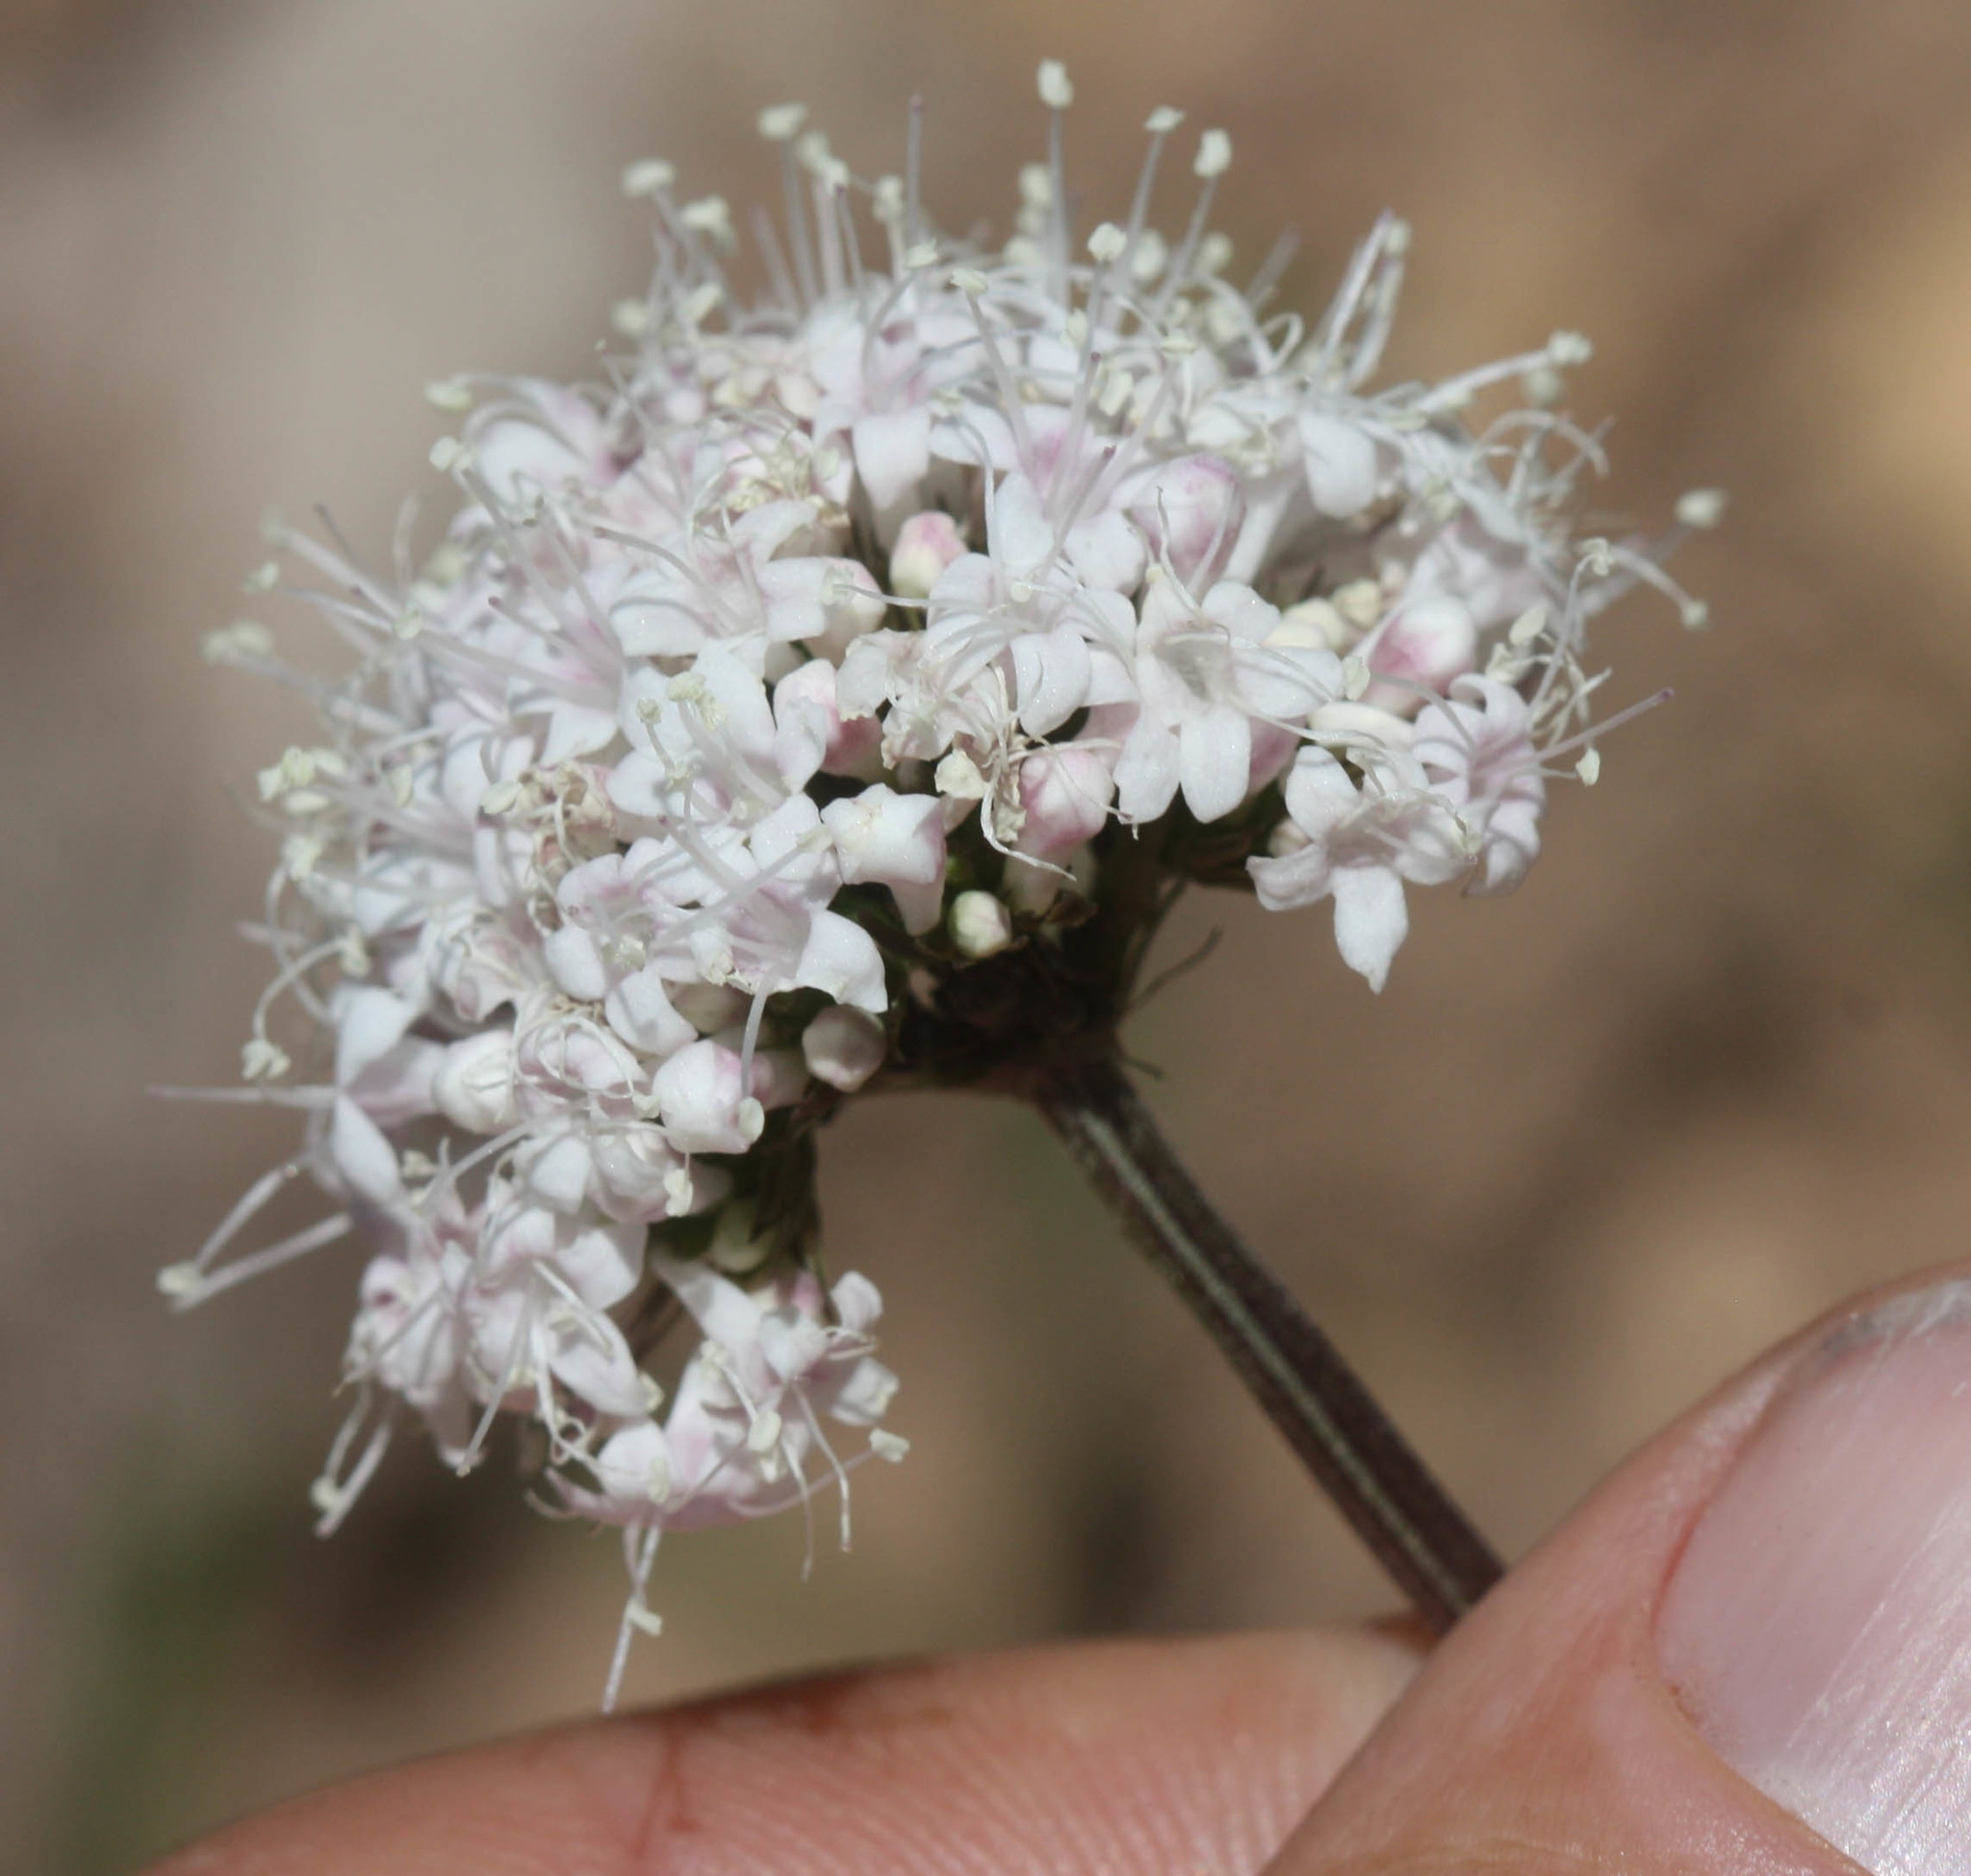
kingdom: Plantae
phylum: Tracheophyta
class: Magnoliopsida
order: Dipsacales
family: Caprifoliaceae
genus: Valeriana
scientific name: Valeriana capitata
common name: Capitate valerian
